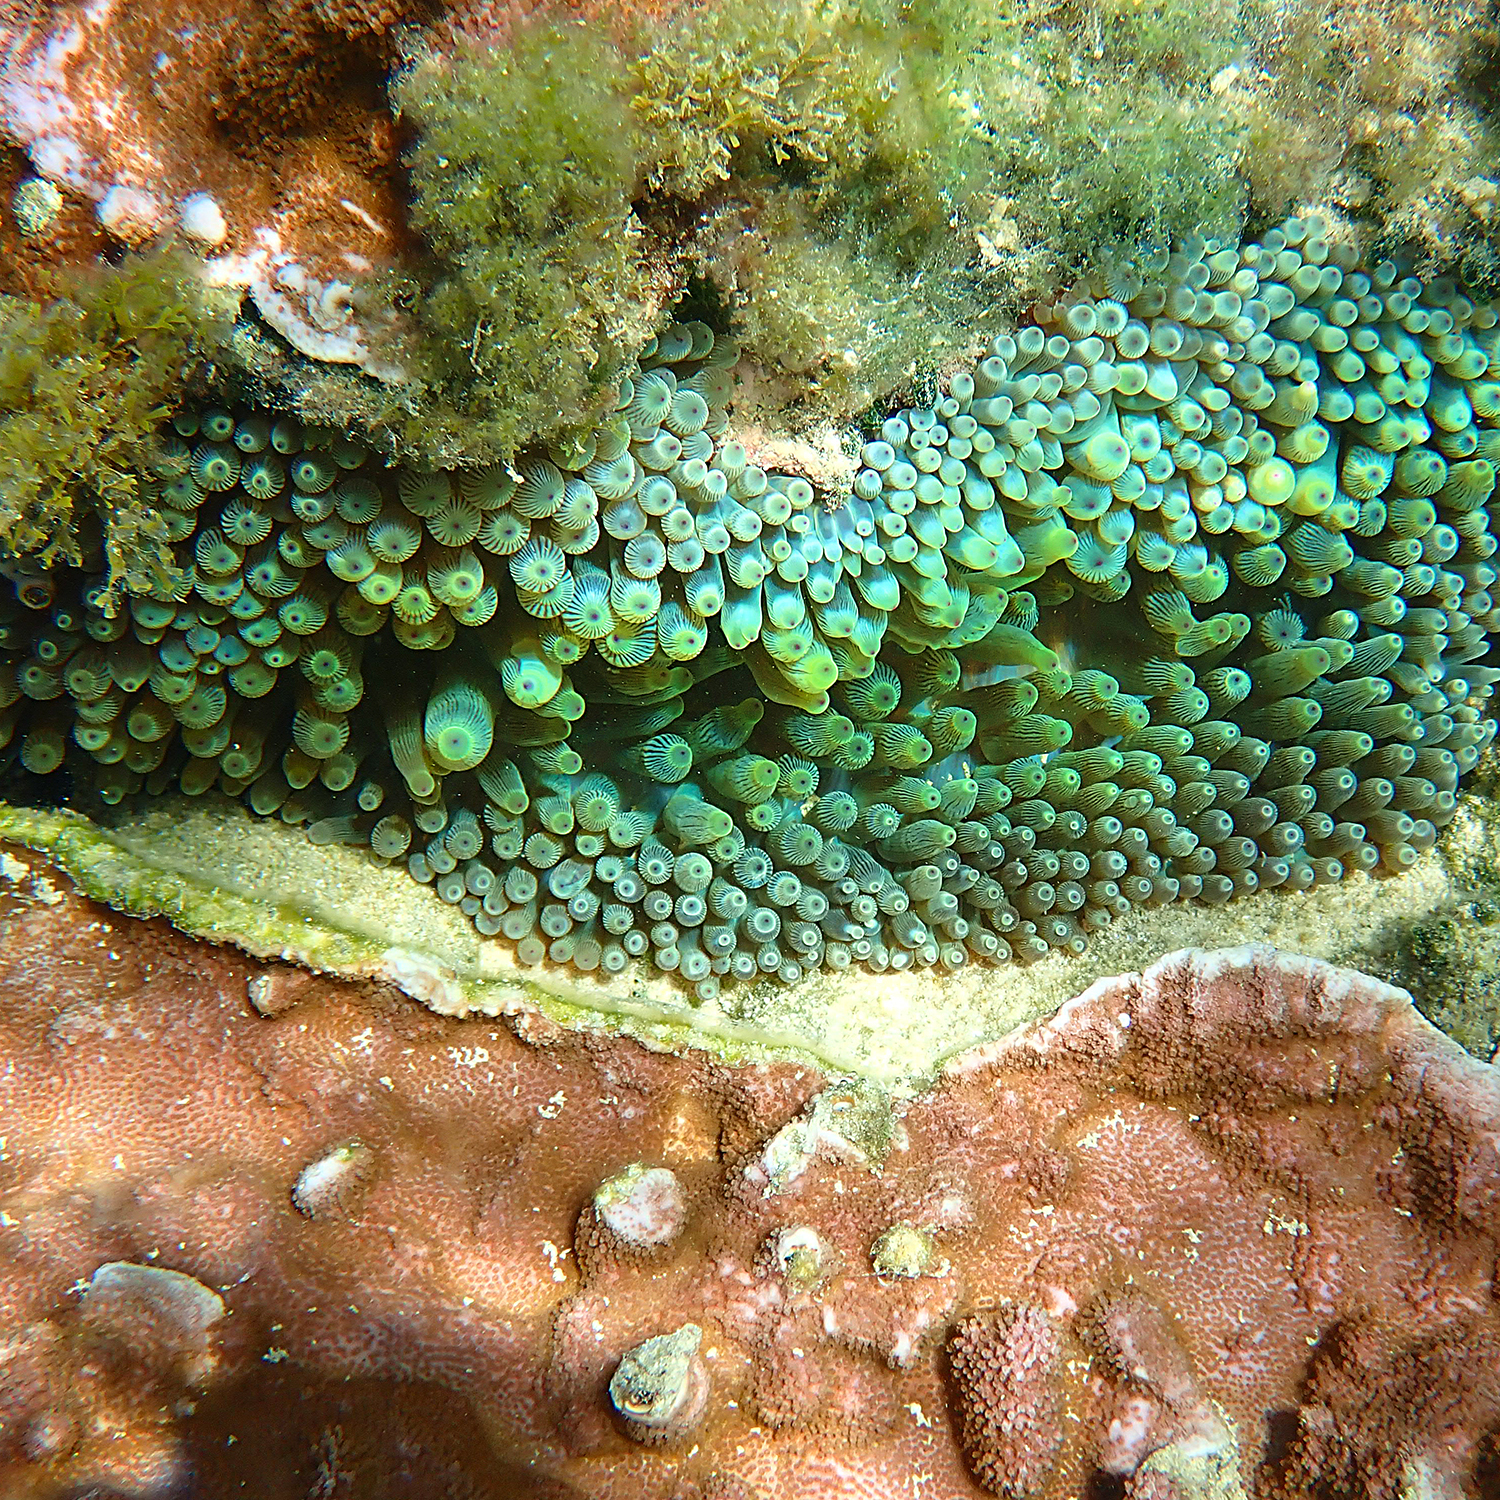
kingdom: Animalia
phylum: Cnidaria
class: Anthozoa
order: Actiniaria
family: Actiniidae
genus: Entacmaea
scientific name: Entacmaea quadricolor
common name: Bulb tentacle sea anemone
